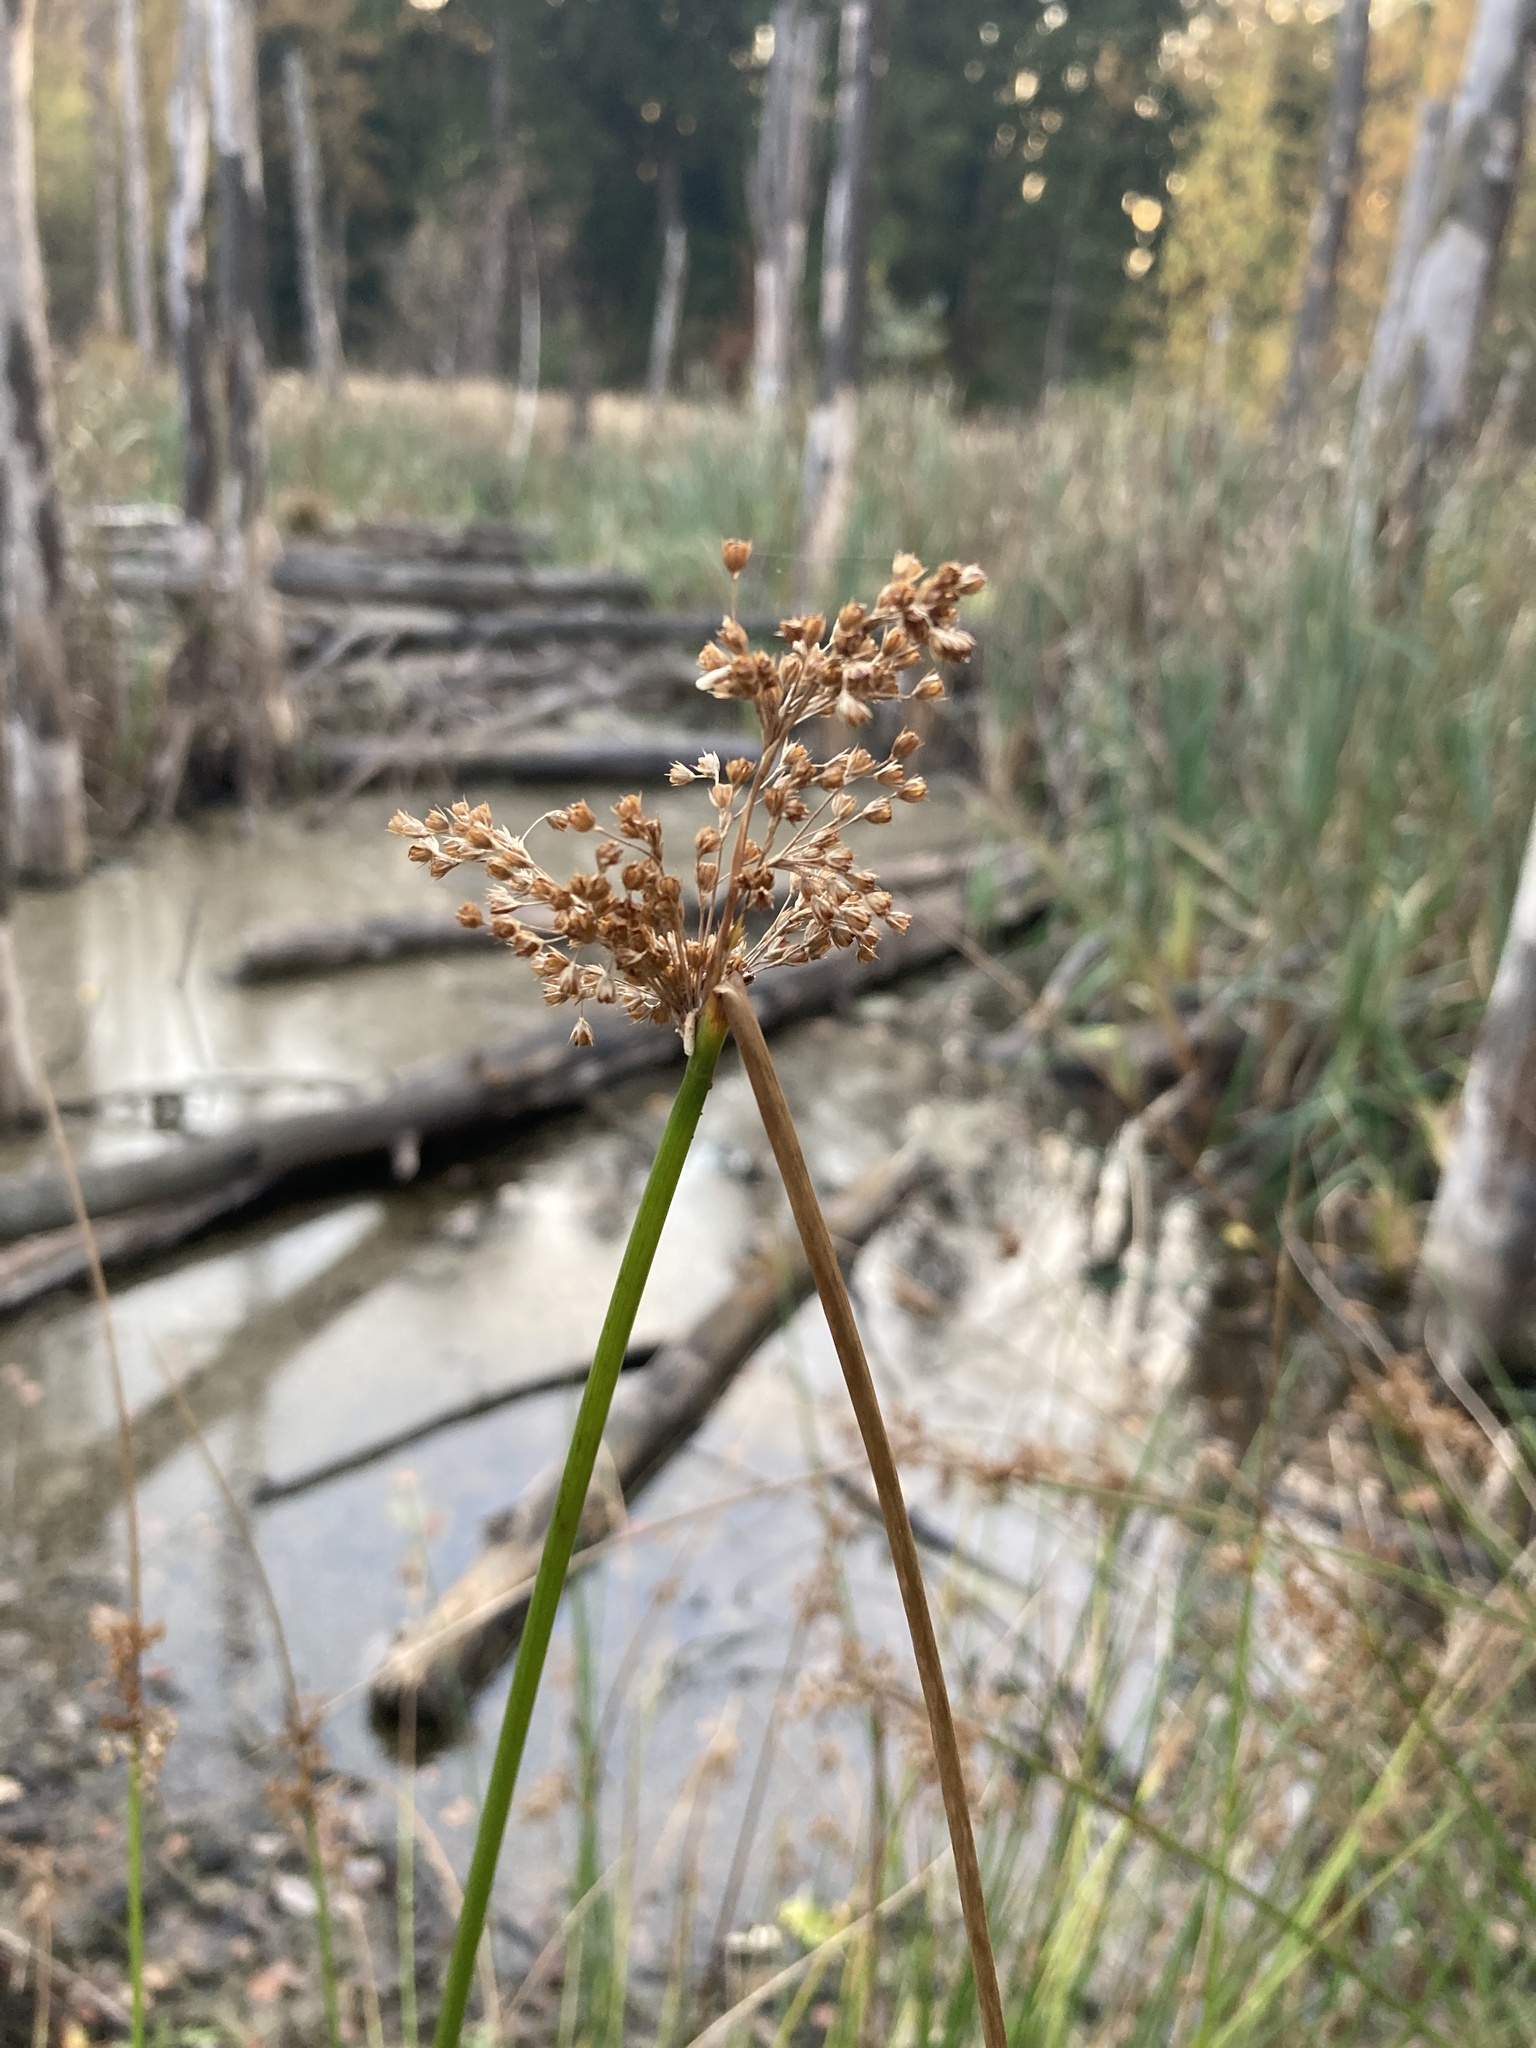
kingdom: Plantae
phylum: Tracheophyta
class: Liliopsida
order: Poales
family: Juncaceae
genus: Juncus
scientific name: Juncus effusus
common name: Soft rush
